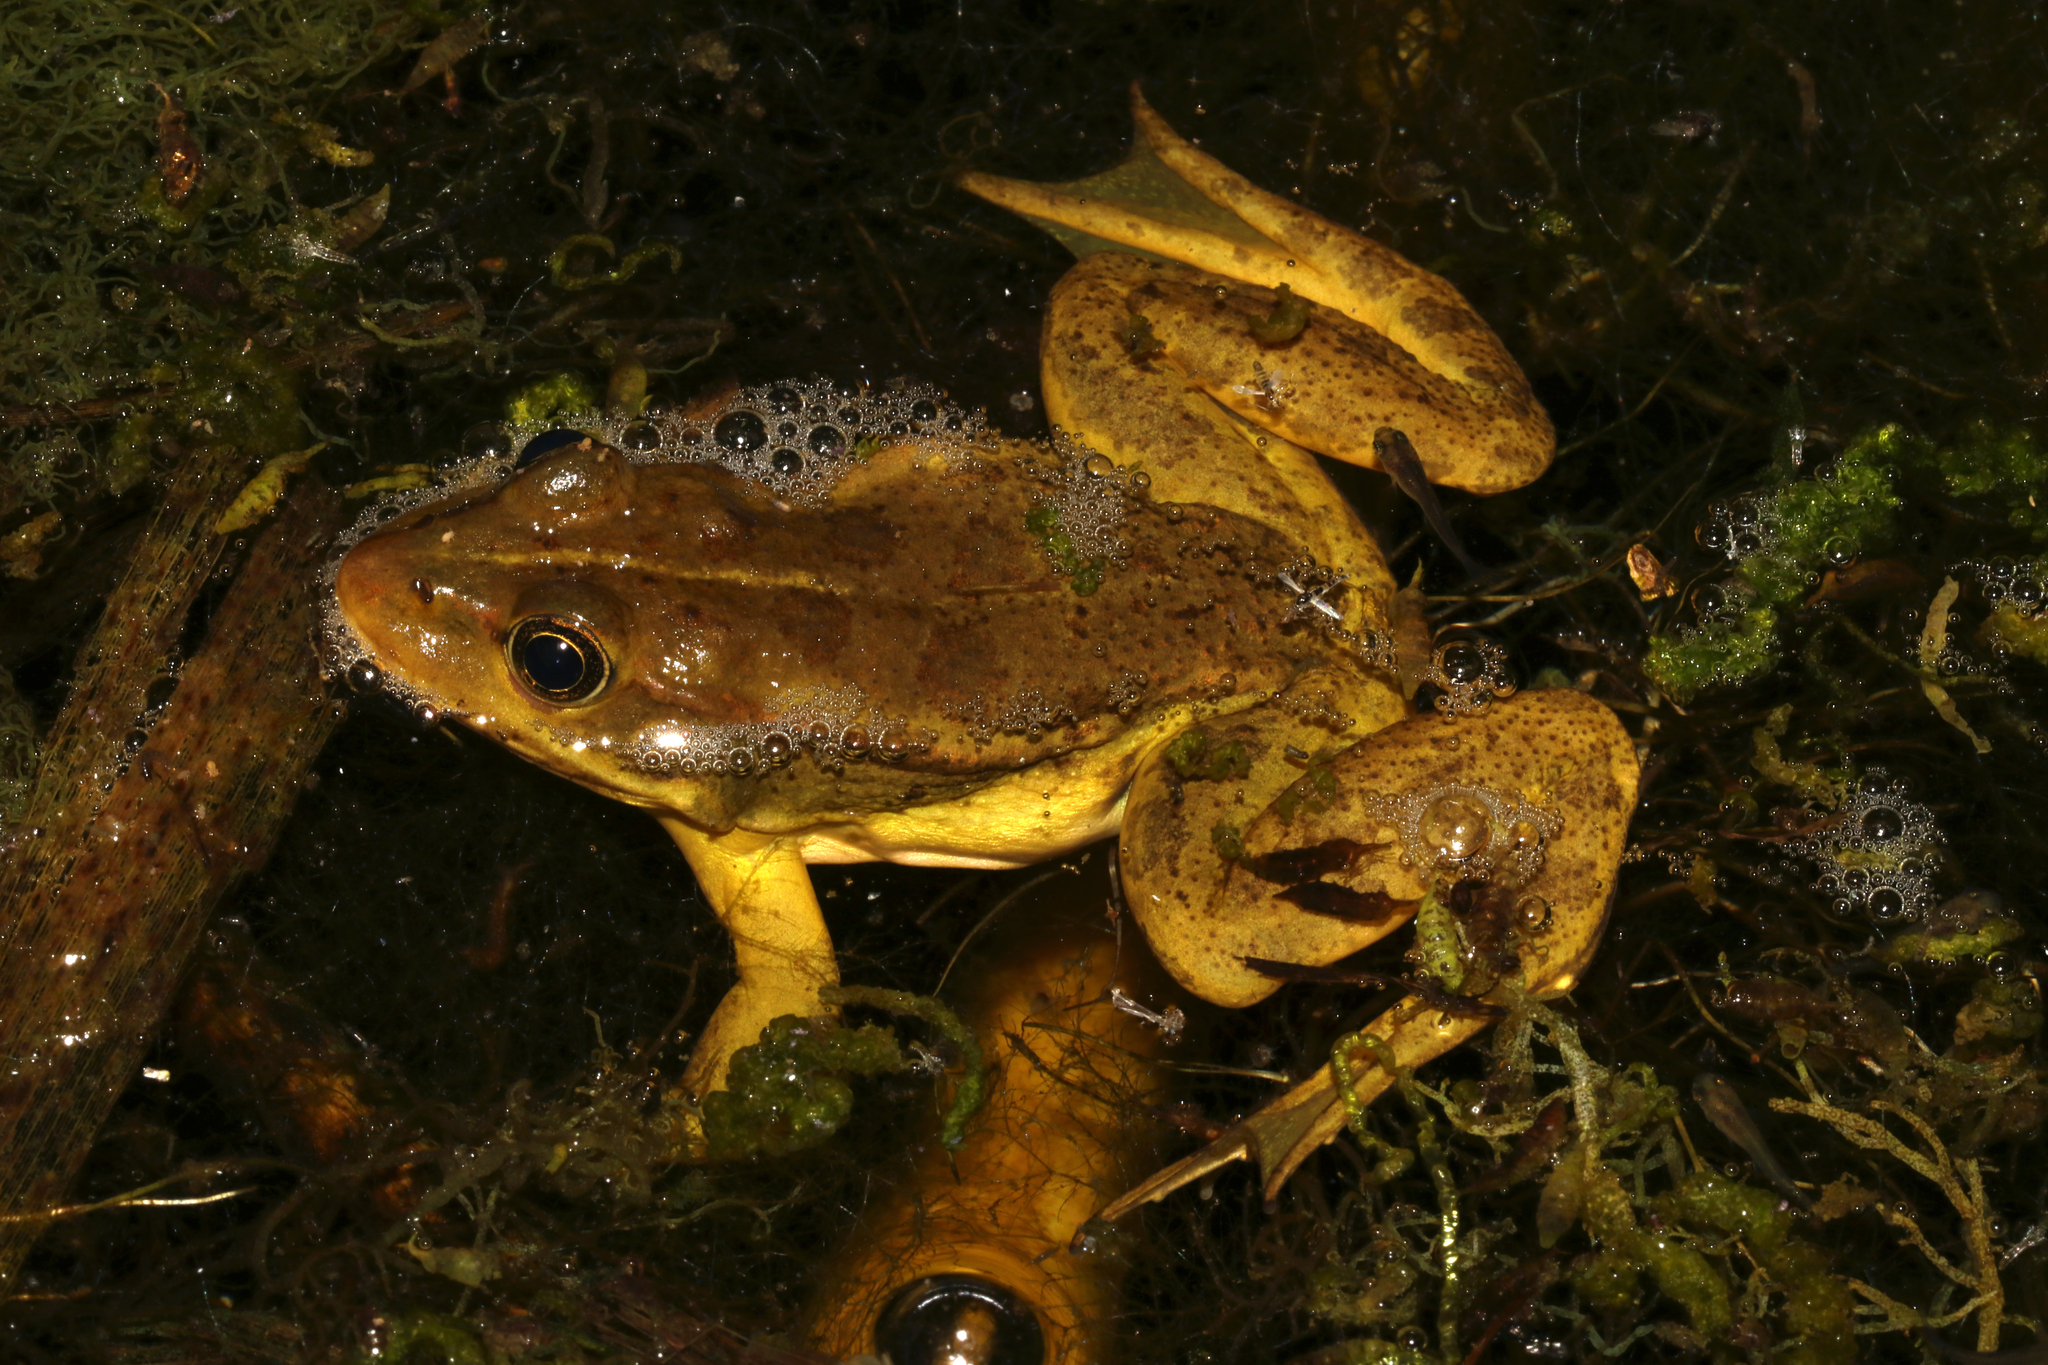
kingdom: Animalia
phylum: Chordata
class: Amphibia
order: Anura
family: Ranidae
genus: Pelophylax
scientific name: Pelophylax epeiroticus
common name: Epirus water frog
